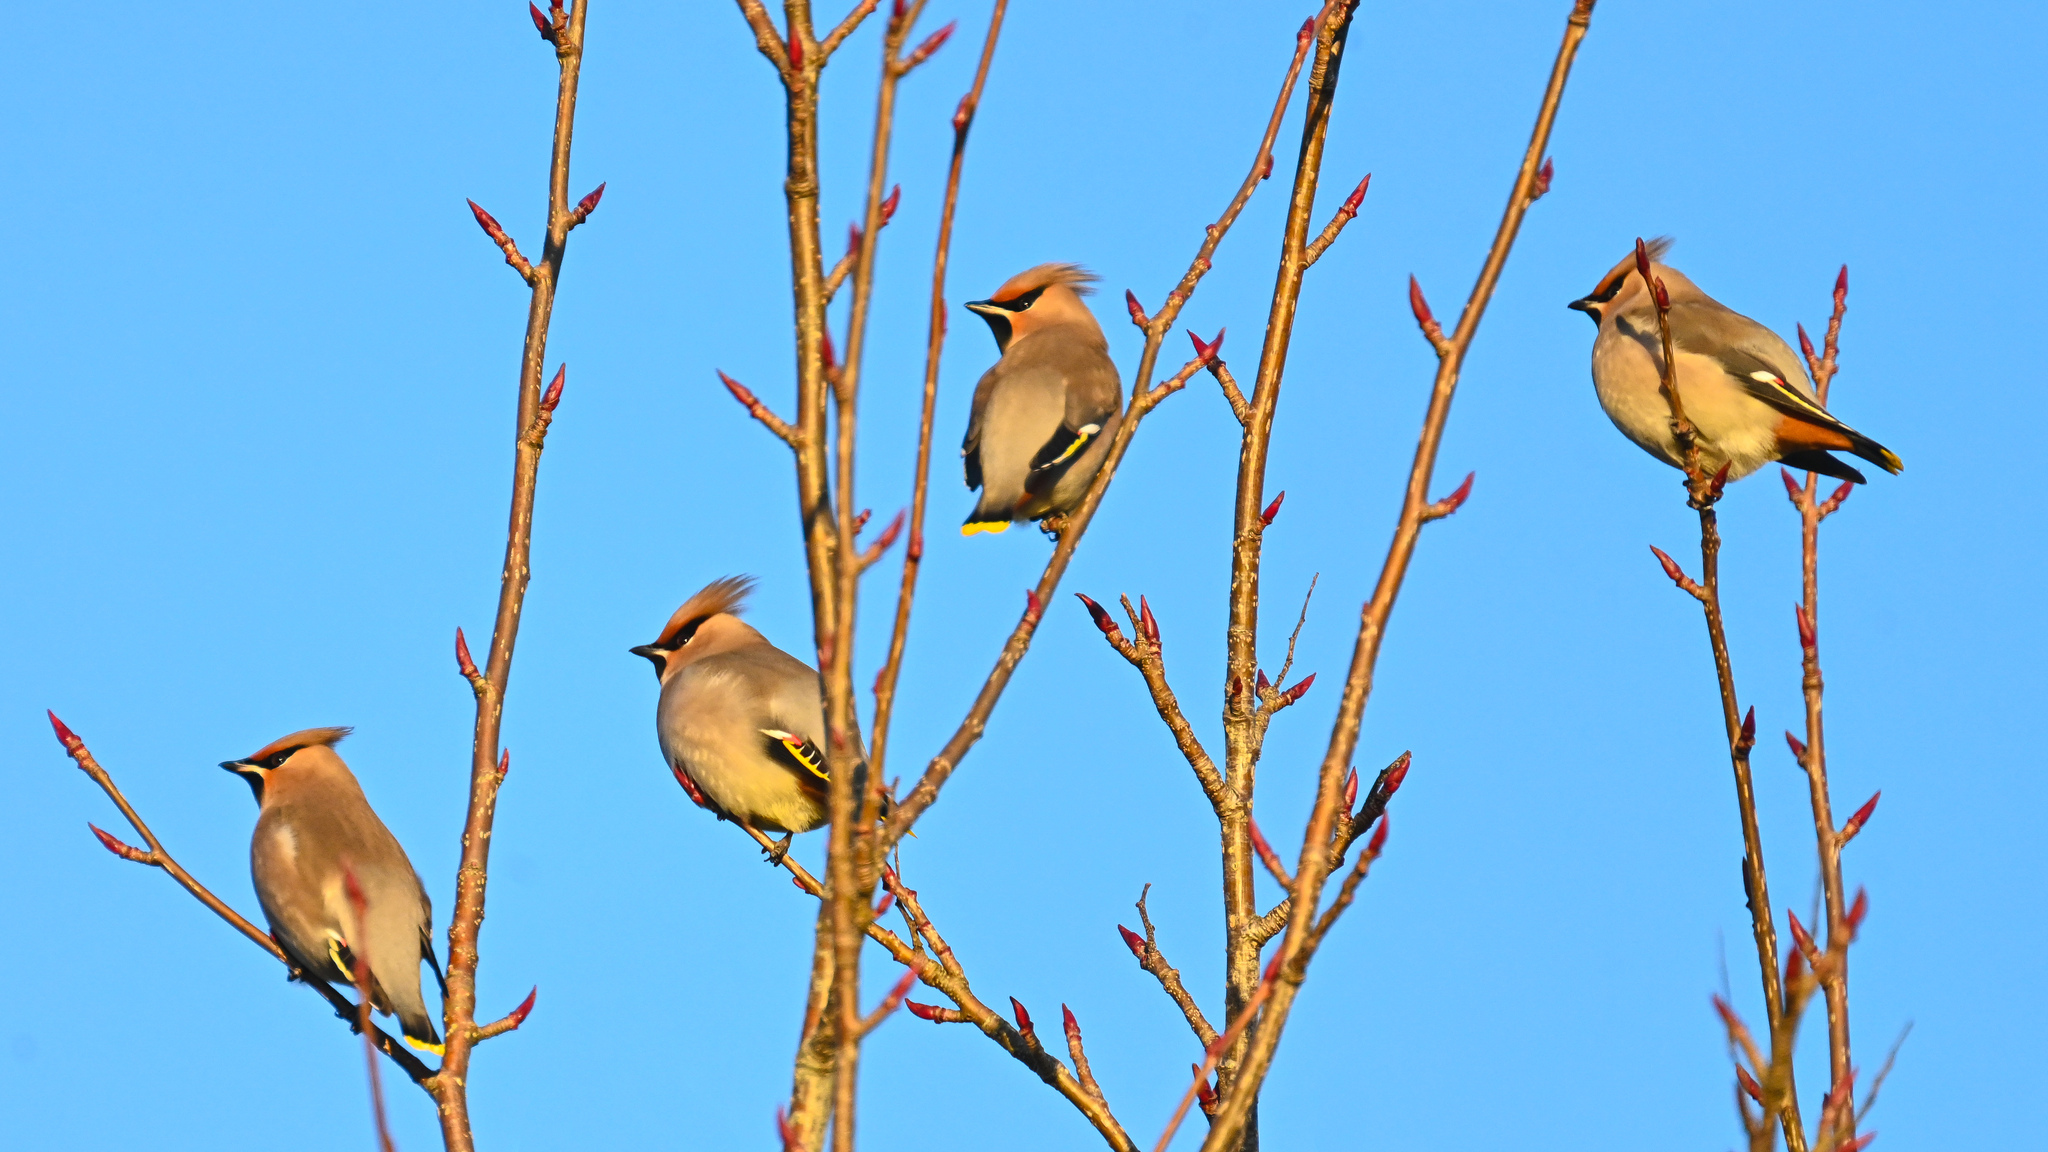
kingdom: Animalia
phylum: Chordata
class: Aves
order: Passeriformes
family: Bombycillidae
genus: Bombycilla
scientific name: Bombycilla garrulus
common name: Bohemian waxwing
